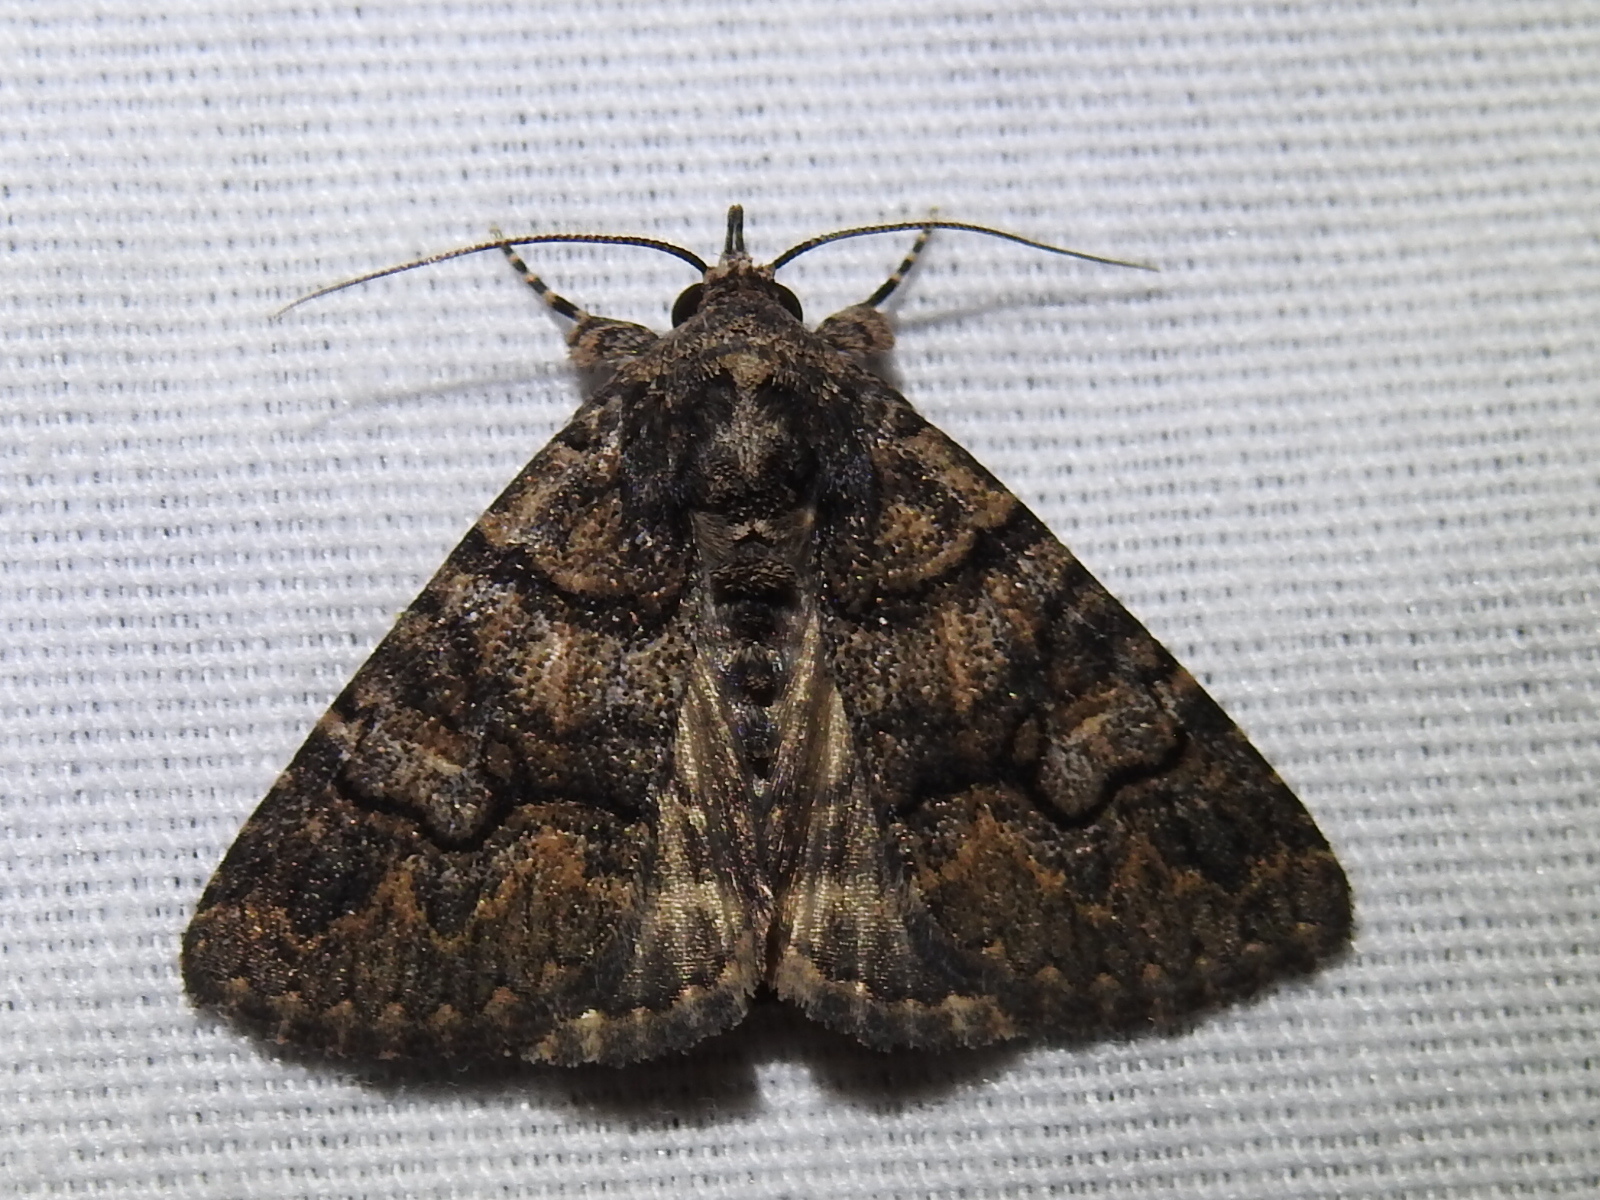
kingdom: Animalia
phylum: Arthropoda
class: Insecta
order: Lepidoptera
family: Erebidae
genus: Elousa
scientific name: Elousa mima
